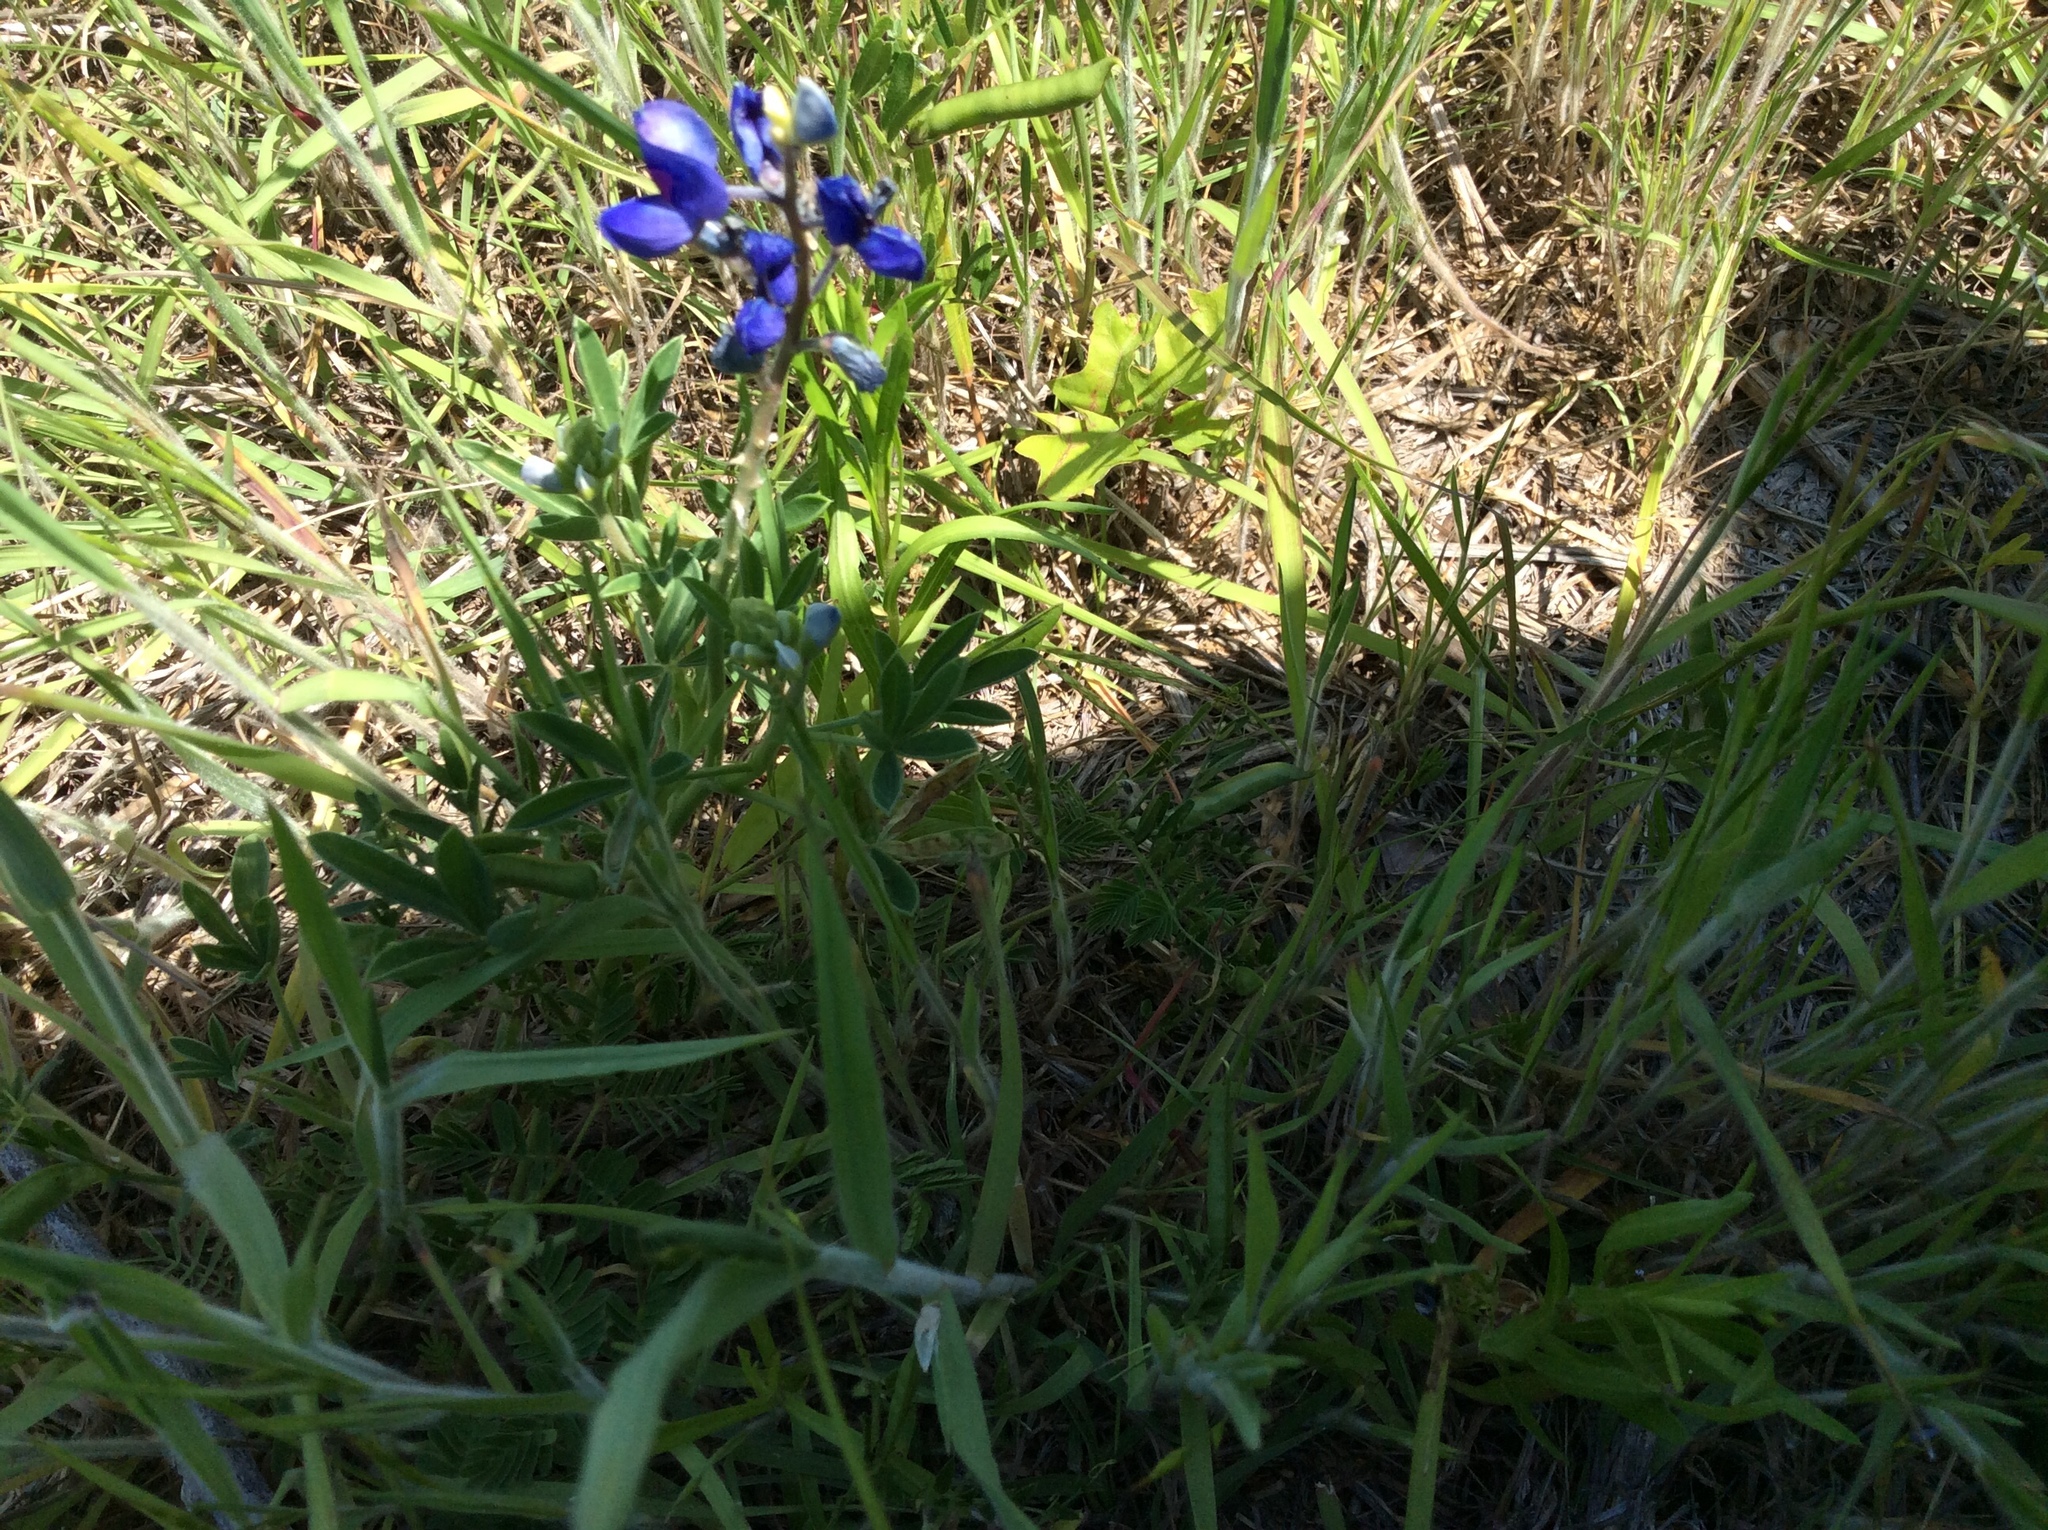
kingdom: Plantae
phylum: Tracheophyta
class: Magnoliopsida
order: Fabales
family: Fabaceae
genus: Lupinus
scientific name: Lupinus texensis
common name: Texas bluebonnet
